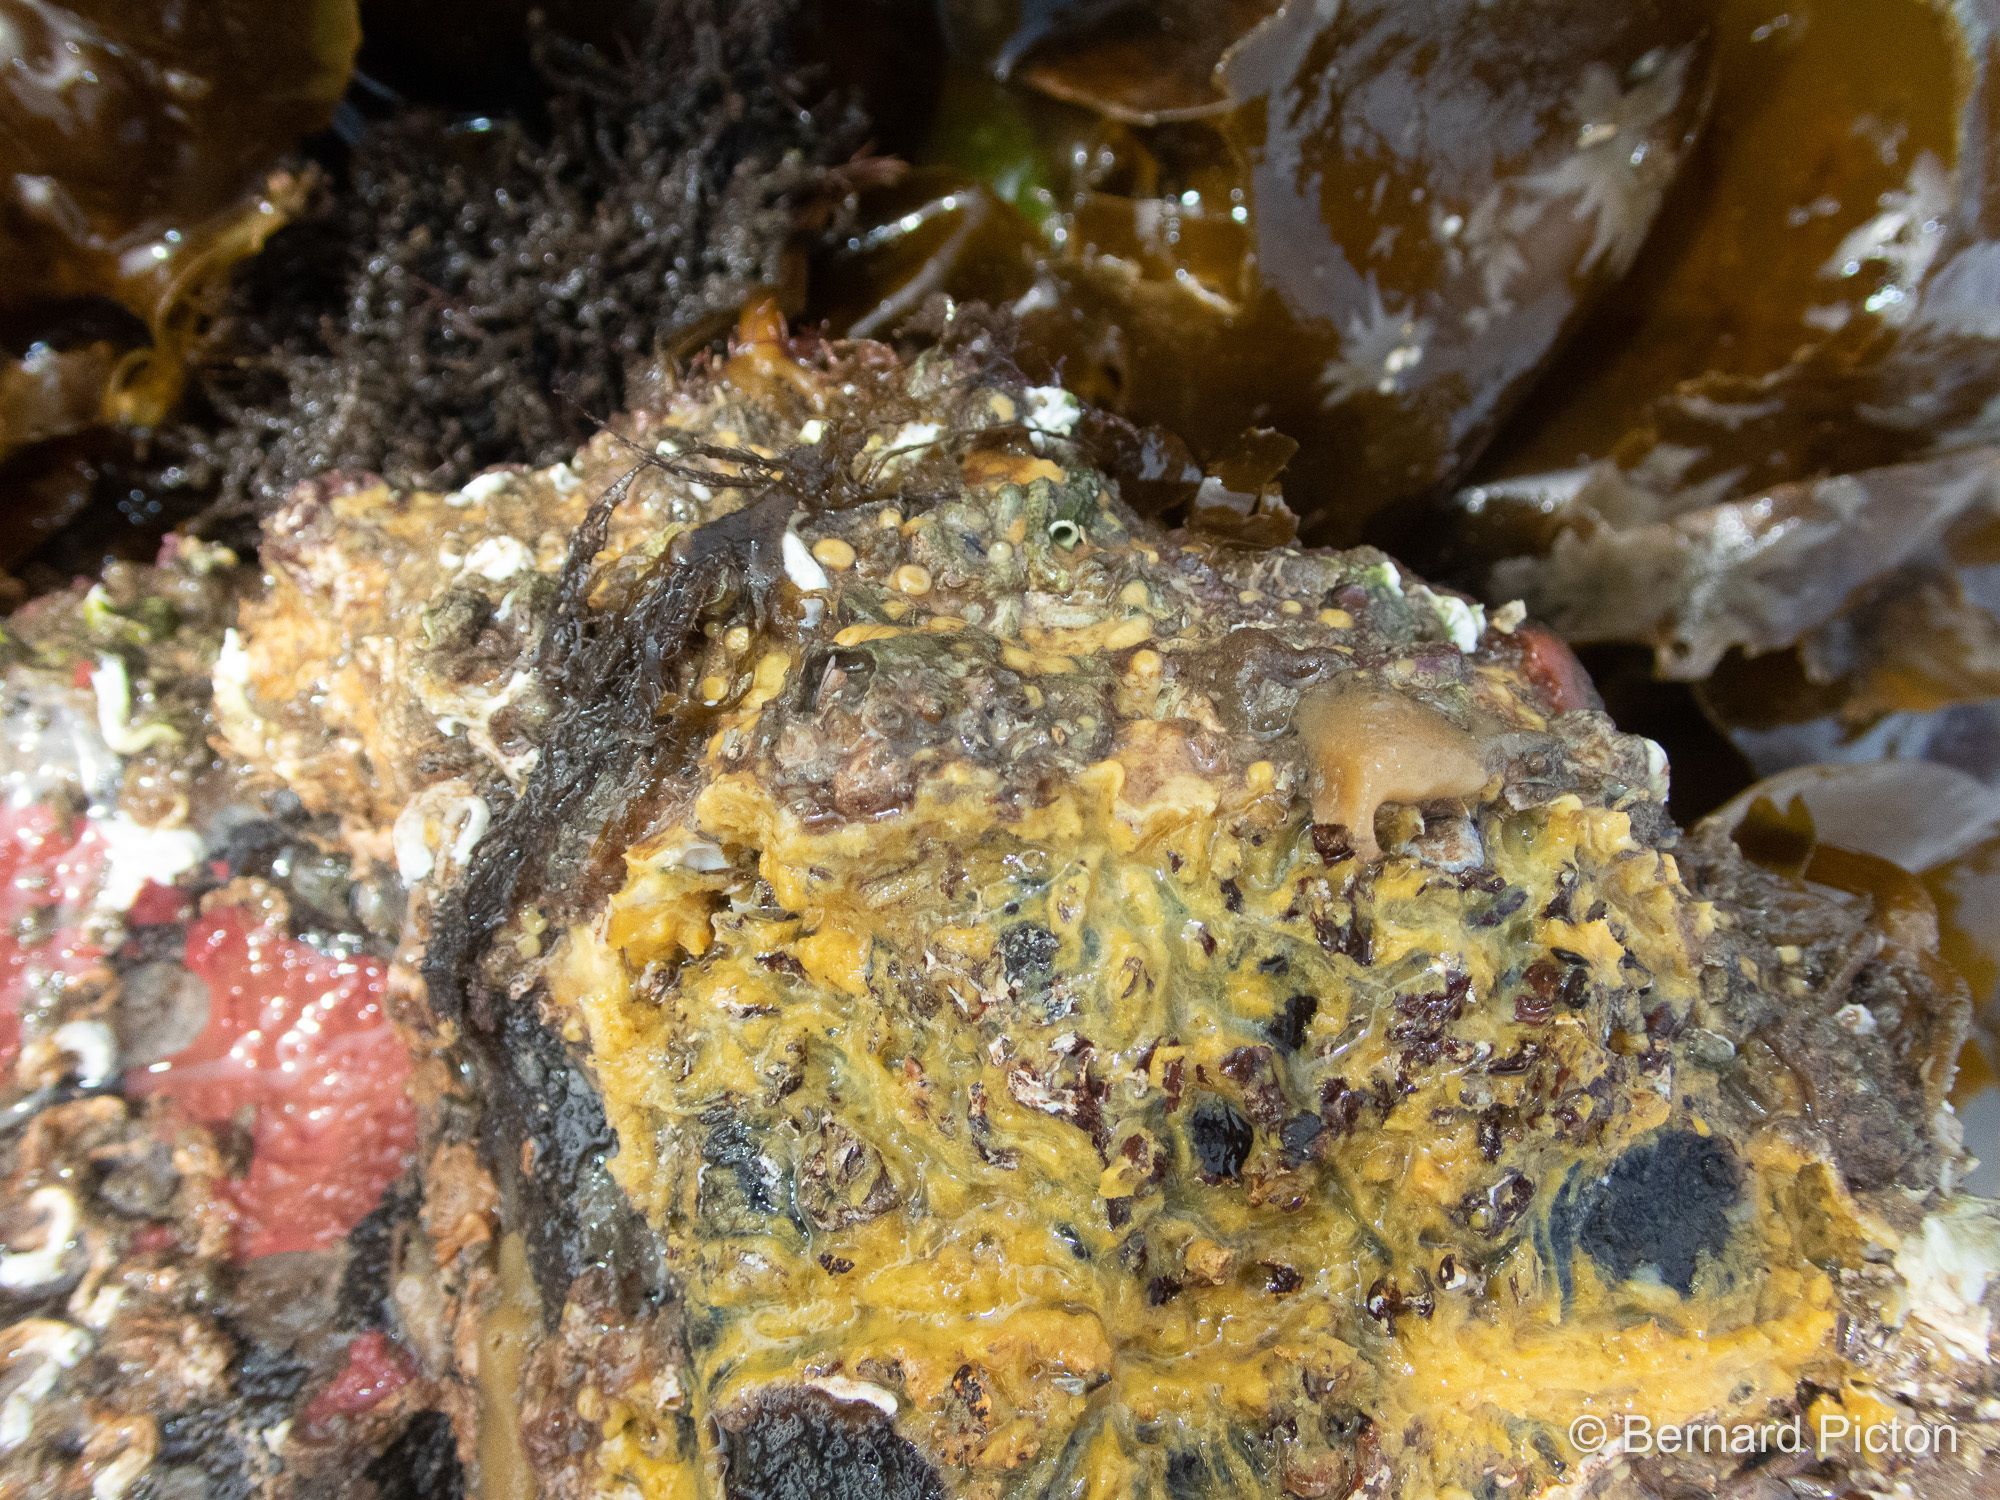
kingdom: Animalia
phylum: Porifera
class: Demospongiae
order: Clionaida
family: Clionaidae
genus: Cliona
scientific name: Cliona celata
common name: Boring sponge
